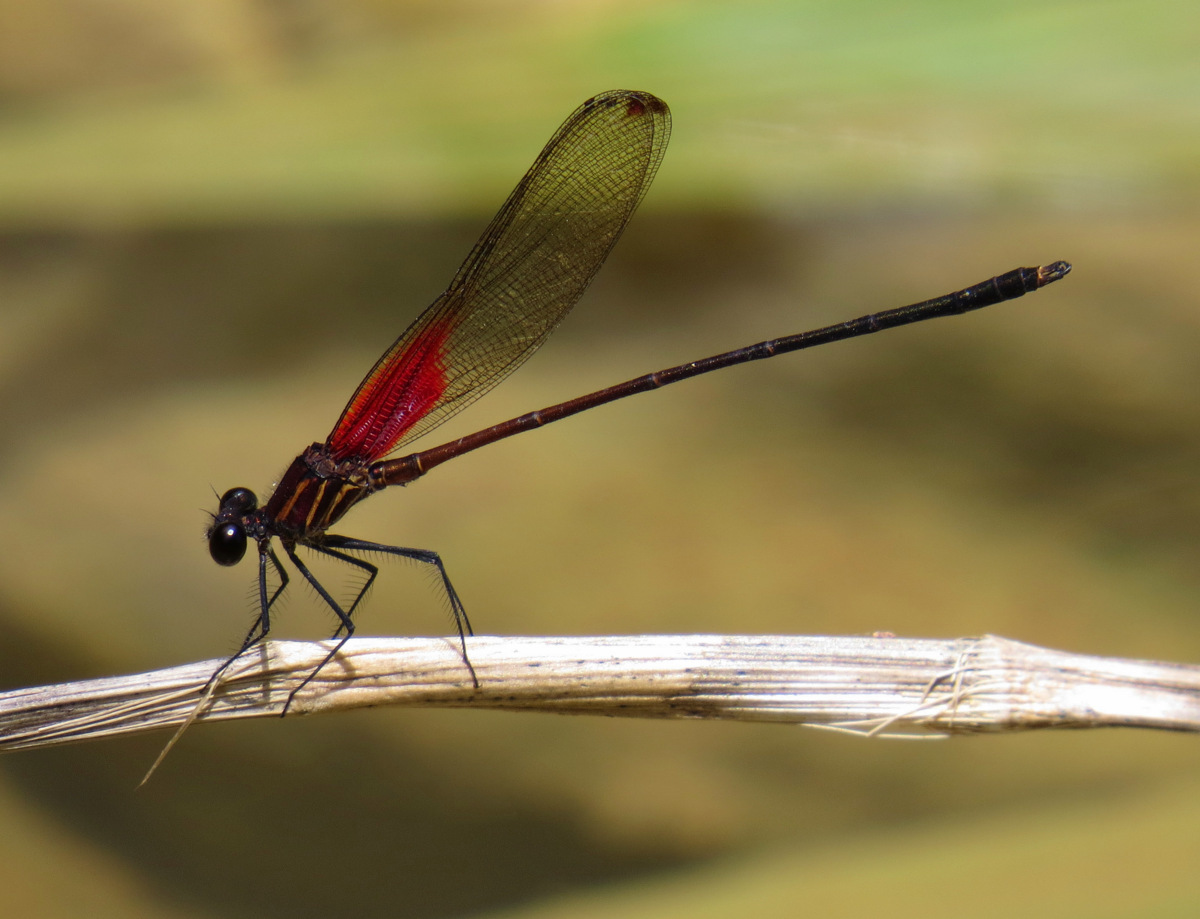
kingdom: Animalia
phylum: Arthropoda
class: Insecta
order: Odonata
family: Calopterygidae
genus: Hetaerina
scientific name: Hetaerina occisa
